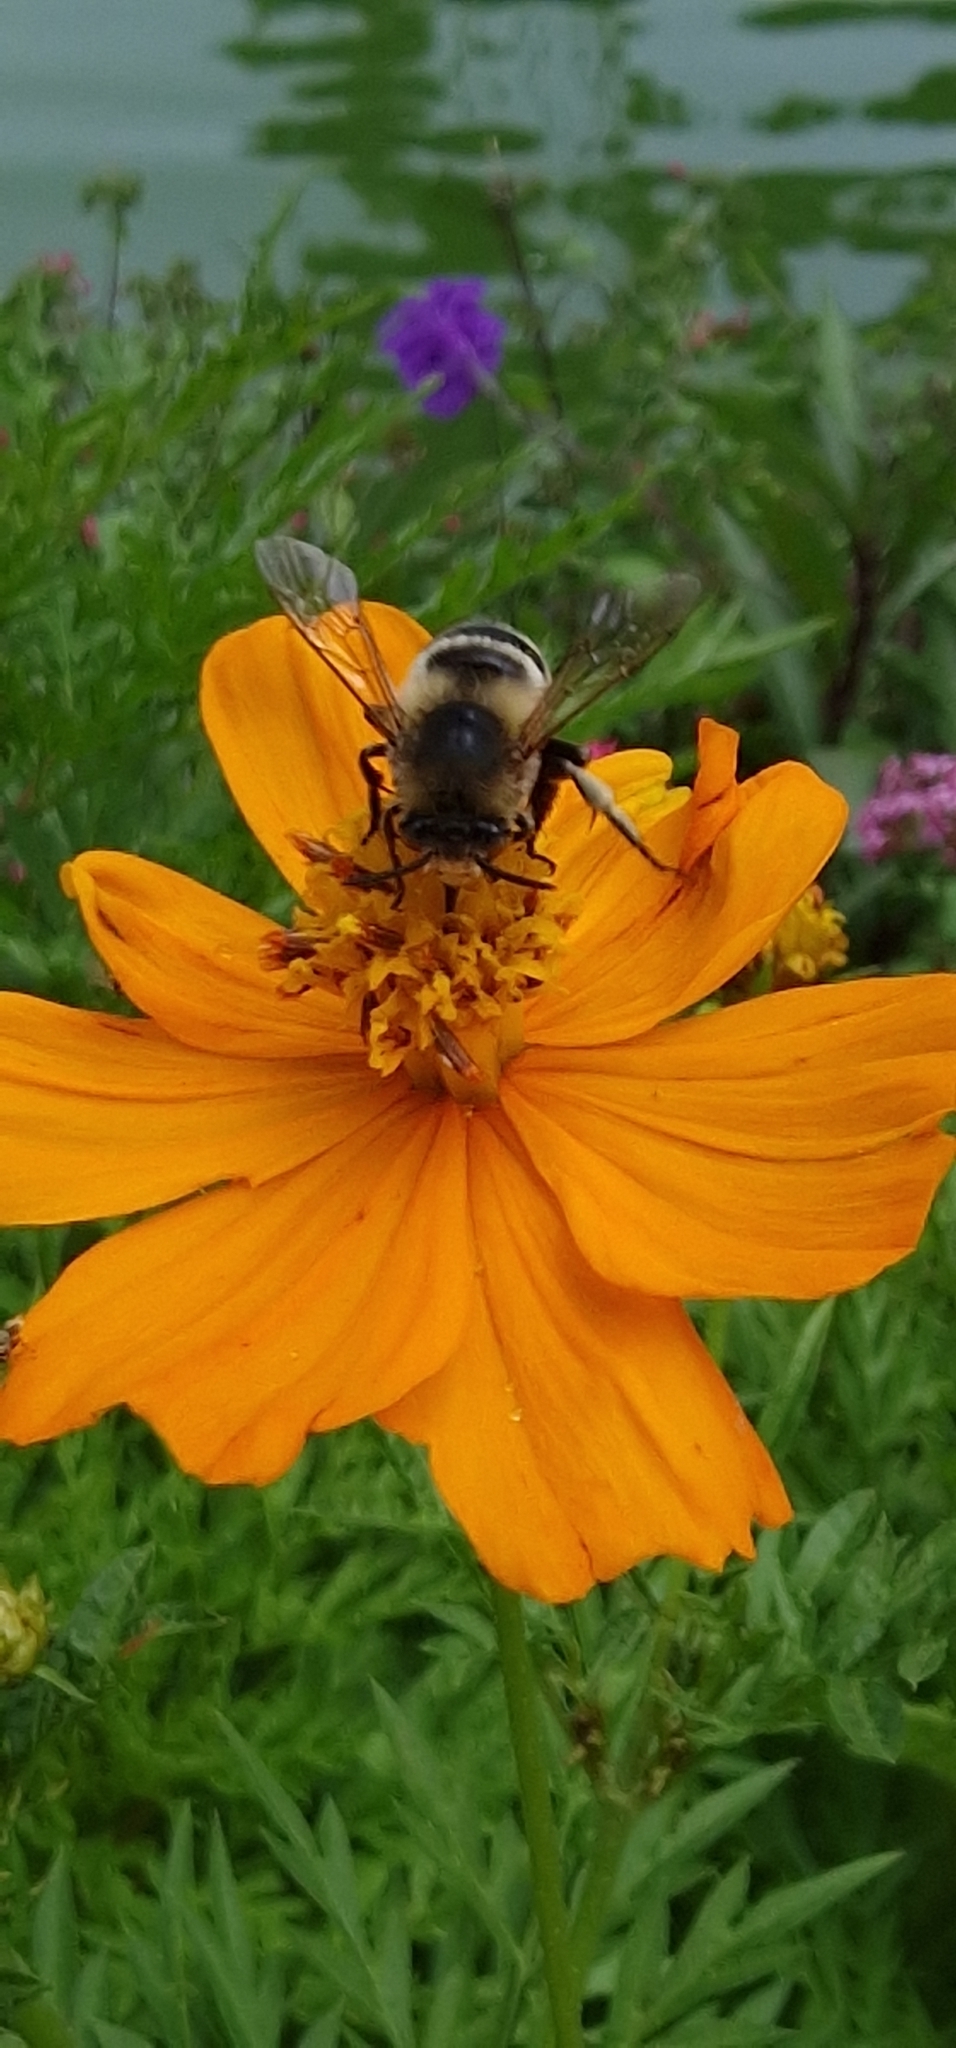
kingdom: Animalia
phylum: Arthropoda
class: Insecta
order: Hymenoptera
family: Apidae
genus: Amegilla
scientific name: Amegilla quadrifasciata
